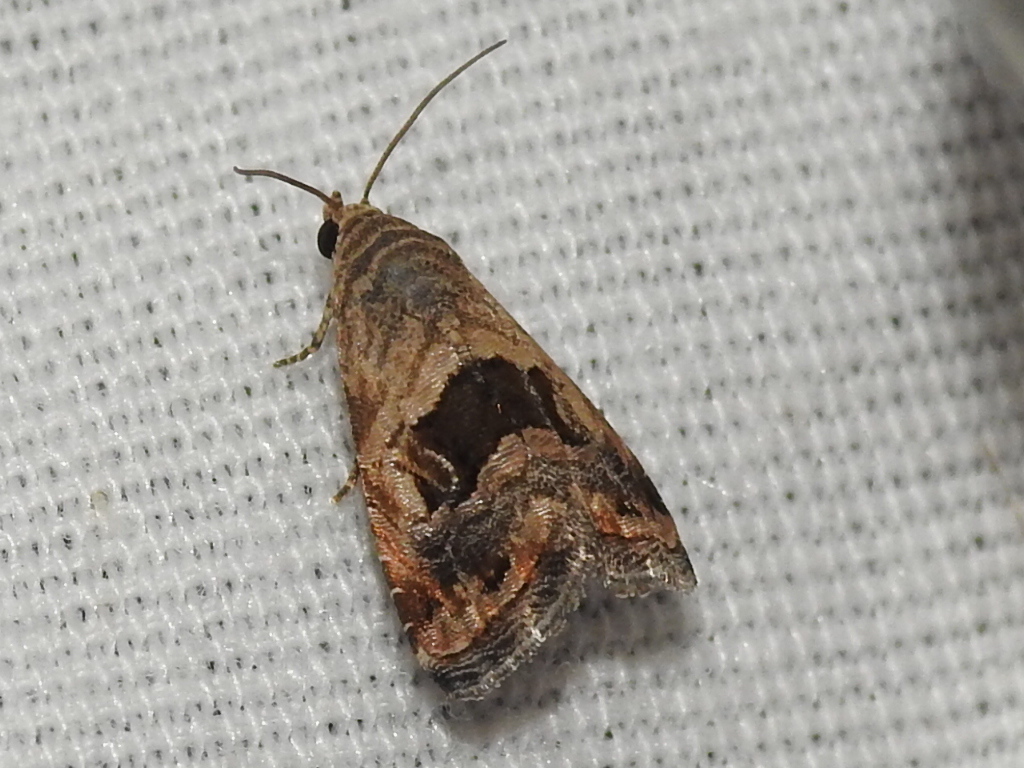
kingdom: Animalia
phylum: Arthropoda
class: Insecta
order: Lepidoptera
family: Noctuidae
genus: Tripudia
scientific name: Tripudia quadrifera
